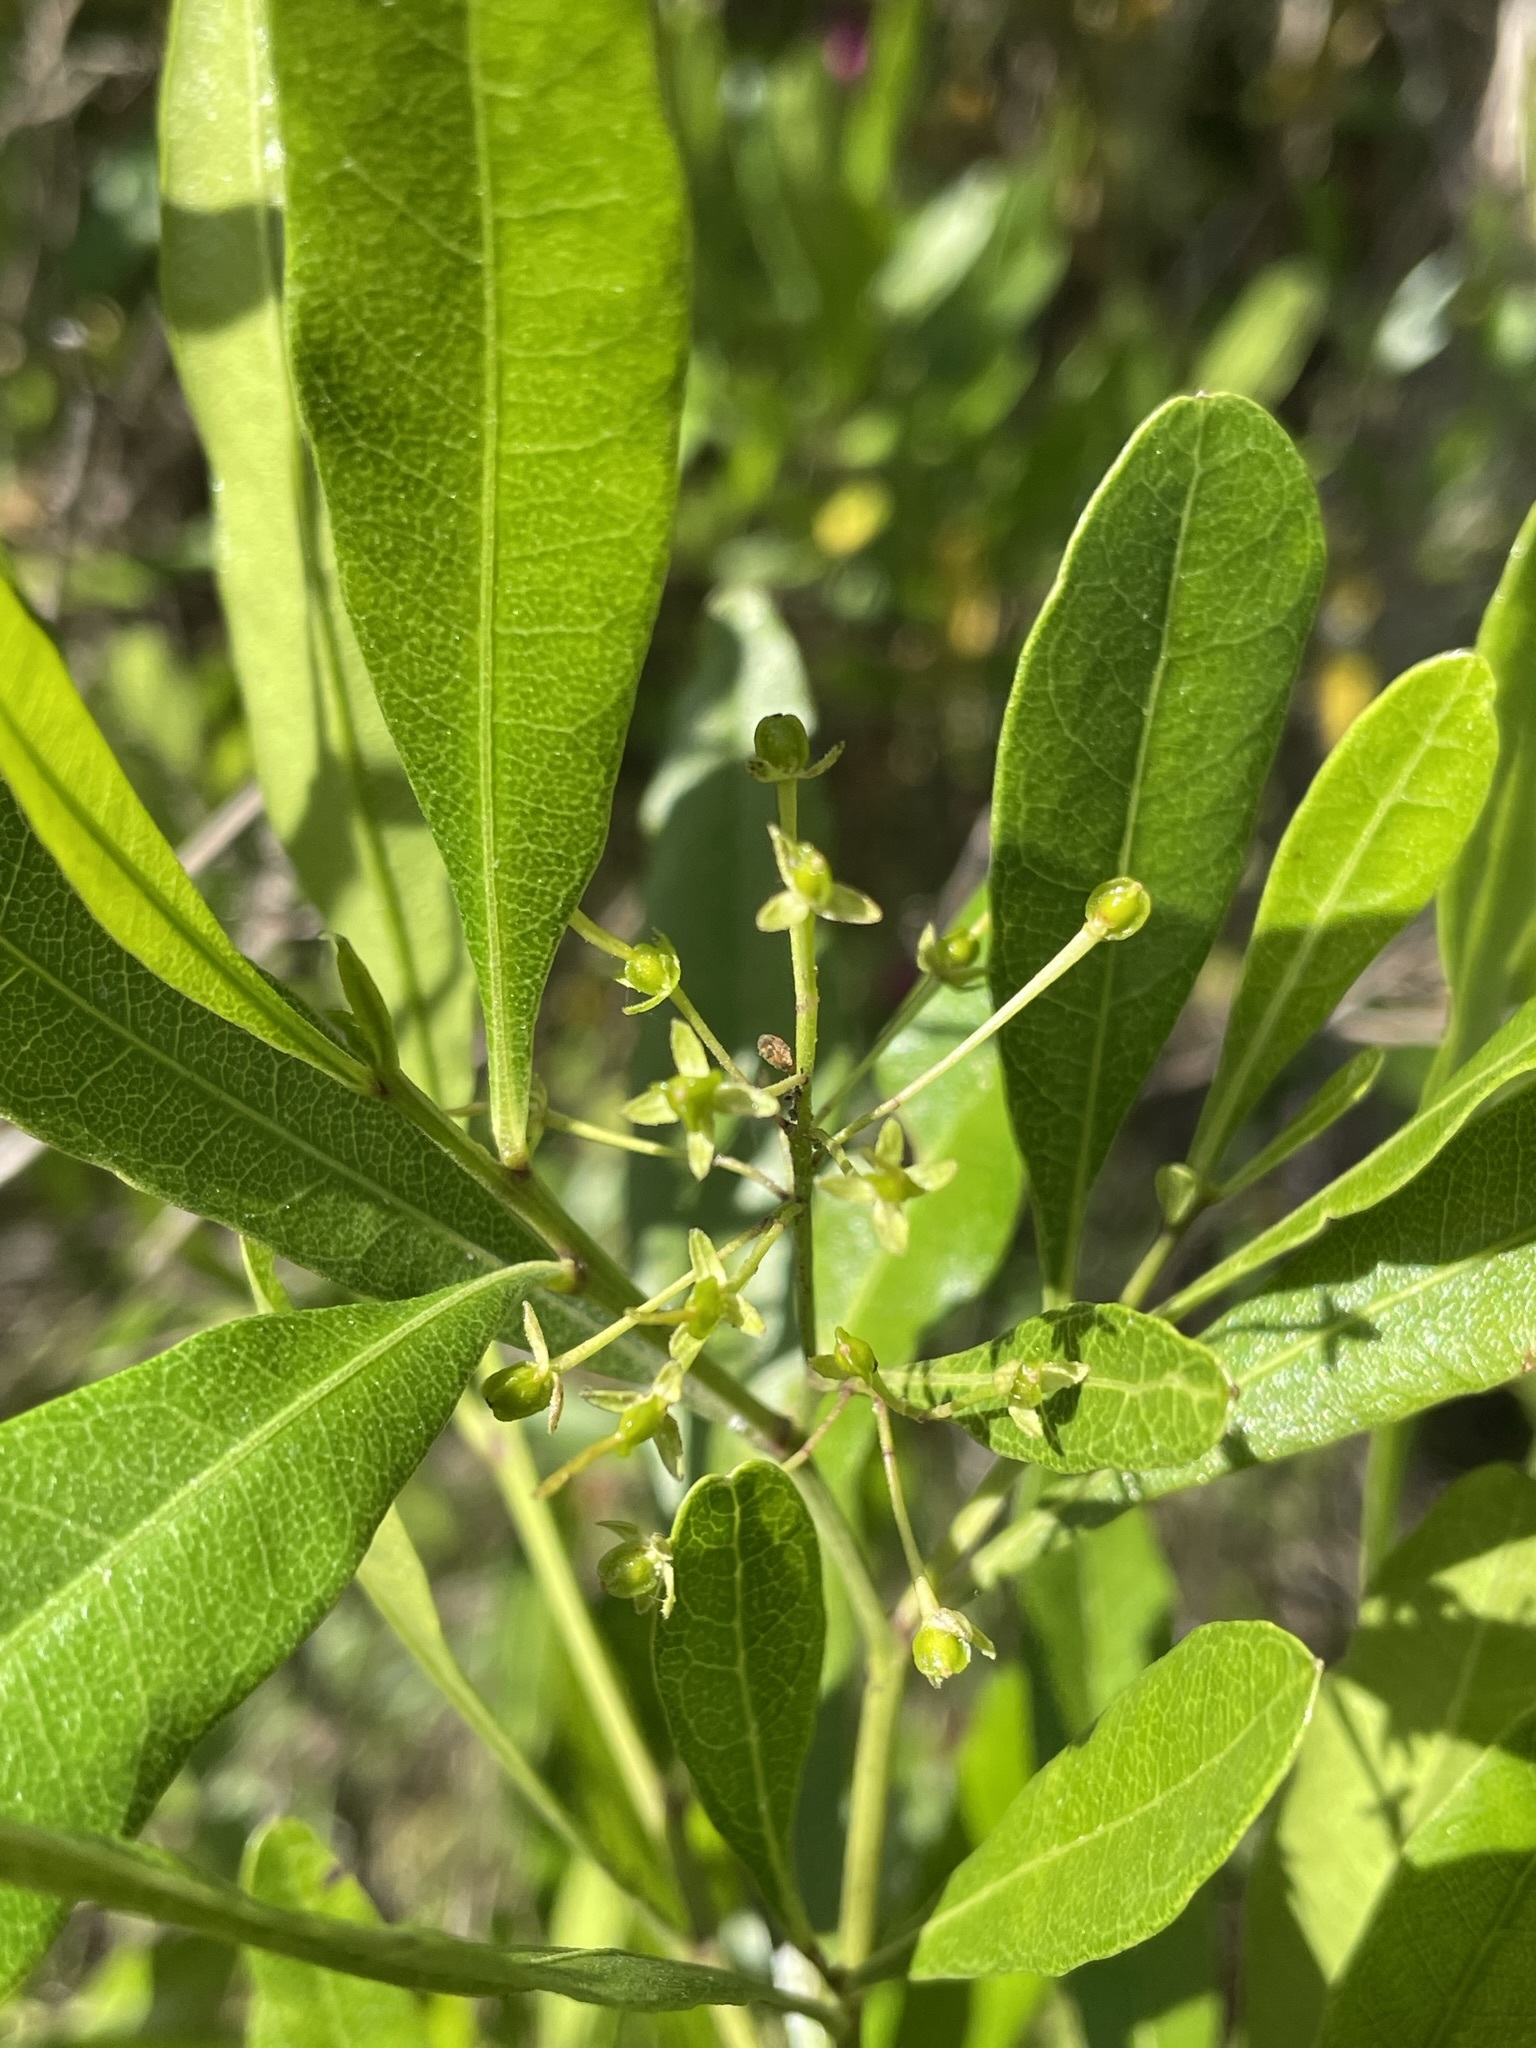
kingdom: Plantae
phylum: Tracheophyta
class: Magnoliopsida
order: Sapindales
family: Sapindaceae
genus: Dodonaea
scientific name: Dodonaea viscosa
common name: Hopbush
